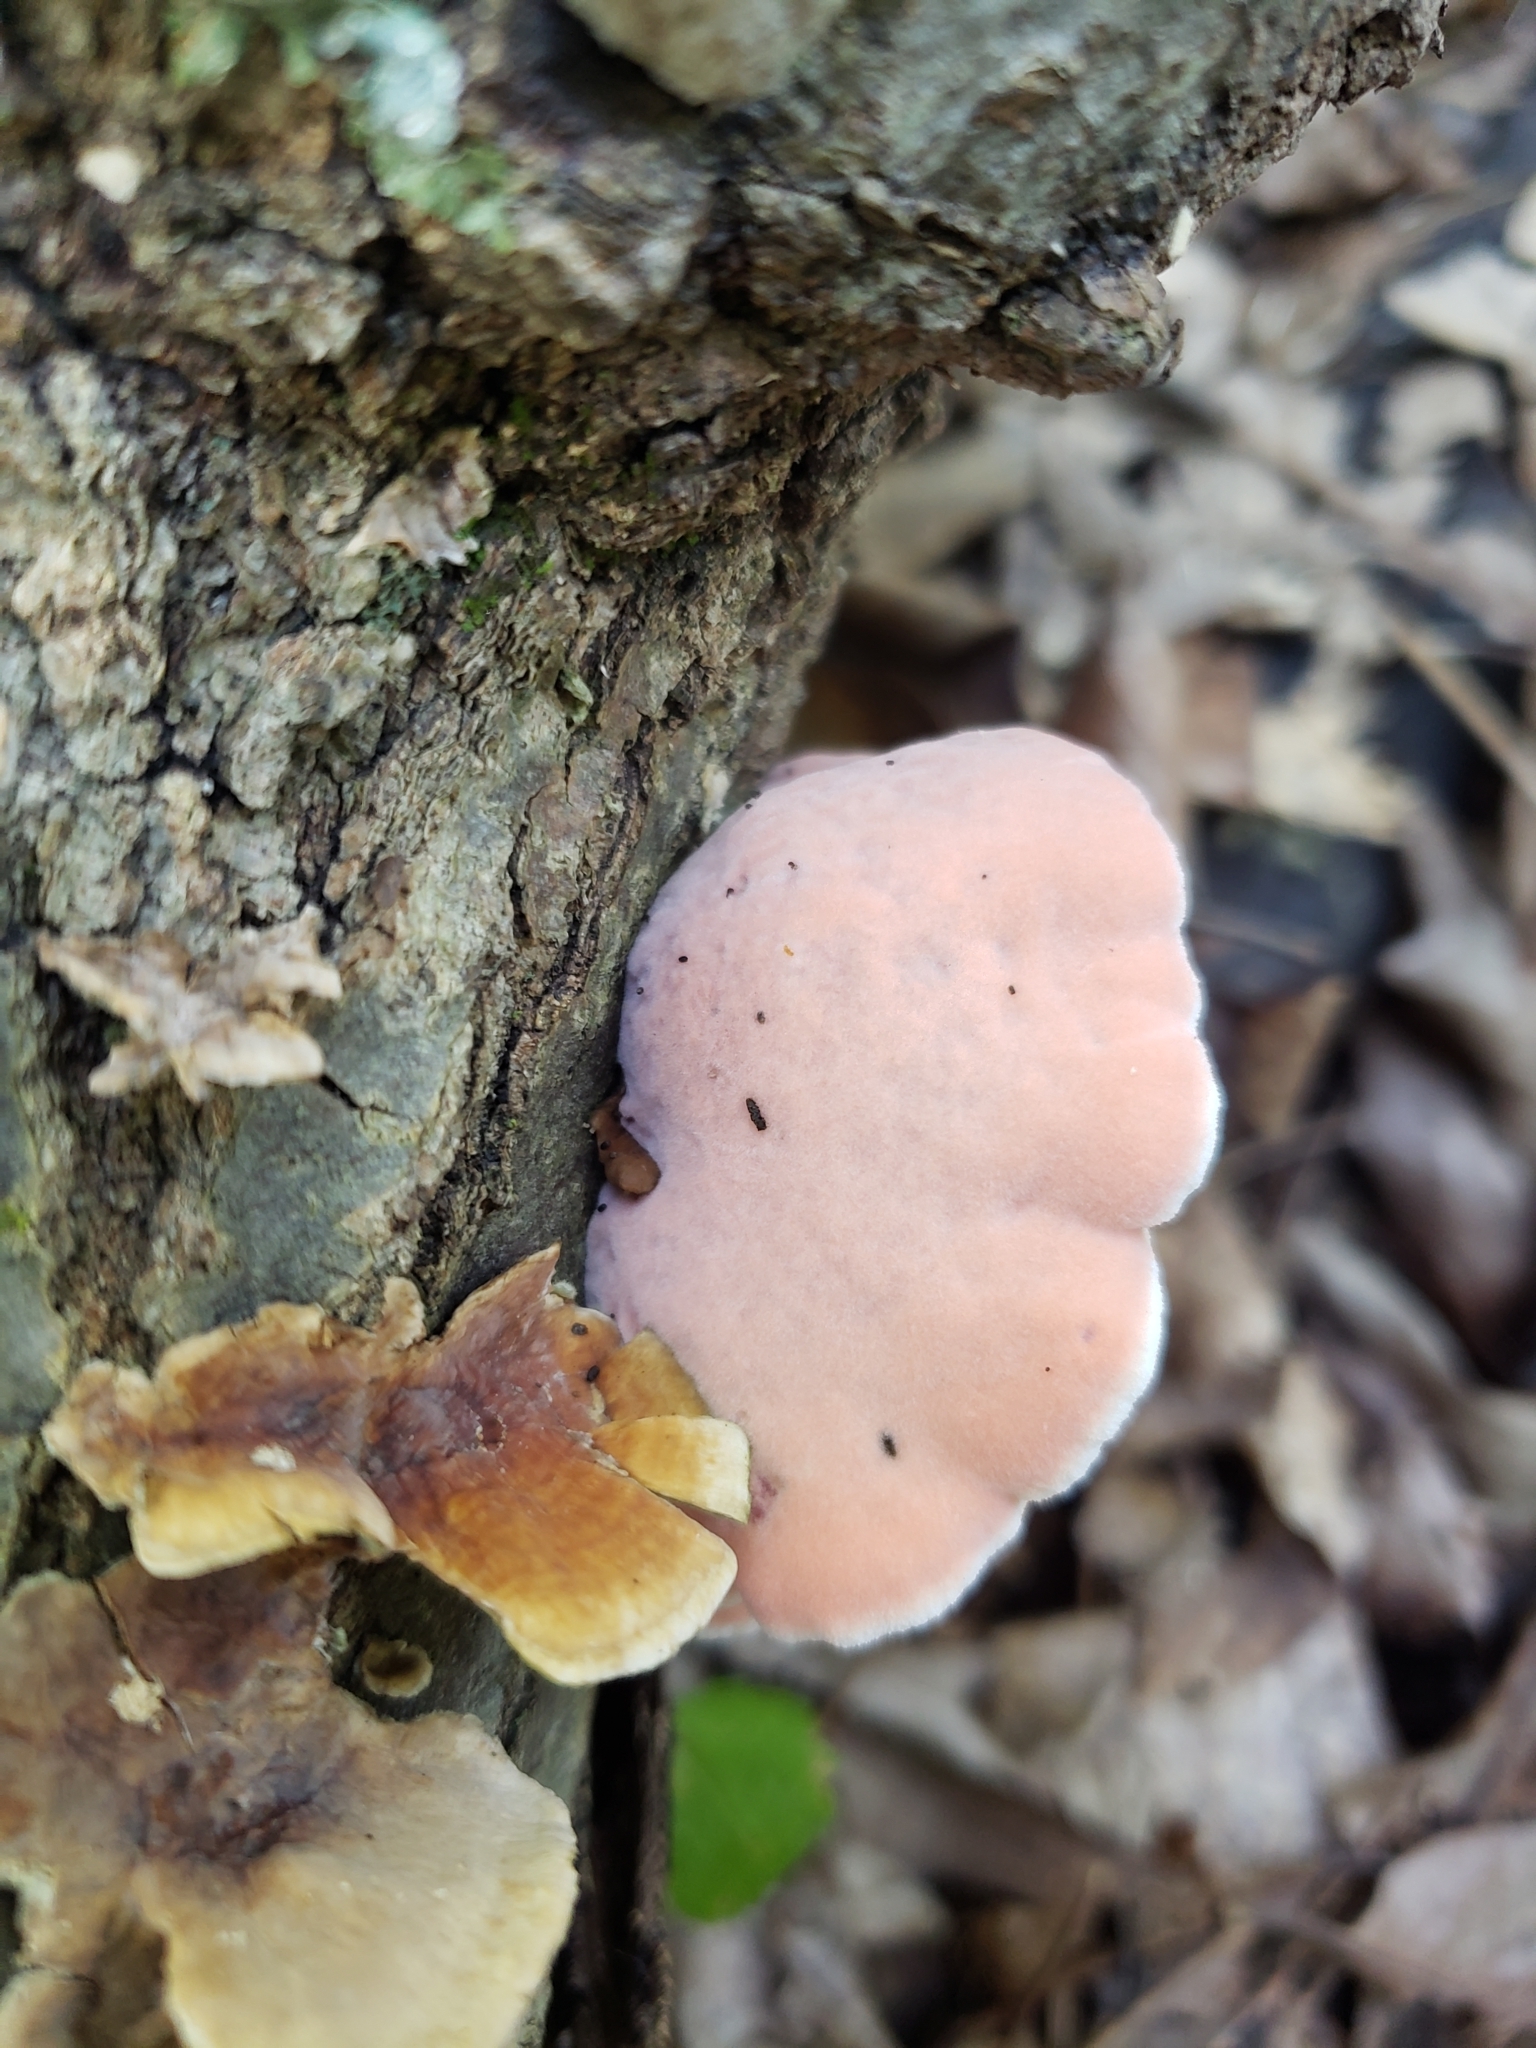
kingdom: Fungi
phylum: Basidiomycota
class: Agaricomycetes
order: Polyporales
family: Irpicaceae
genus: Byssomerulius
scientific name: Byssomerulius incarnatus
